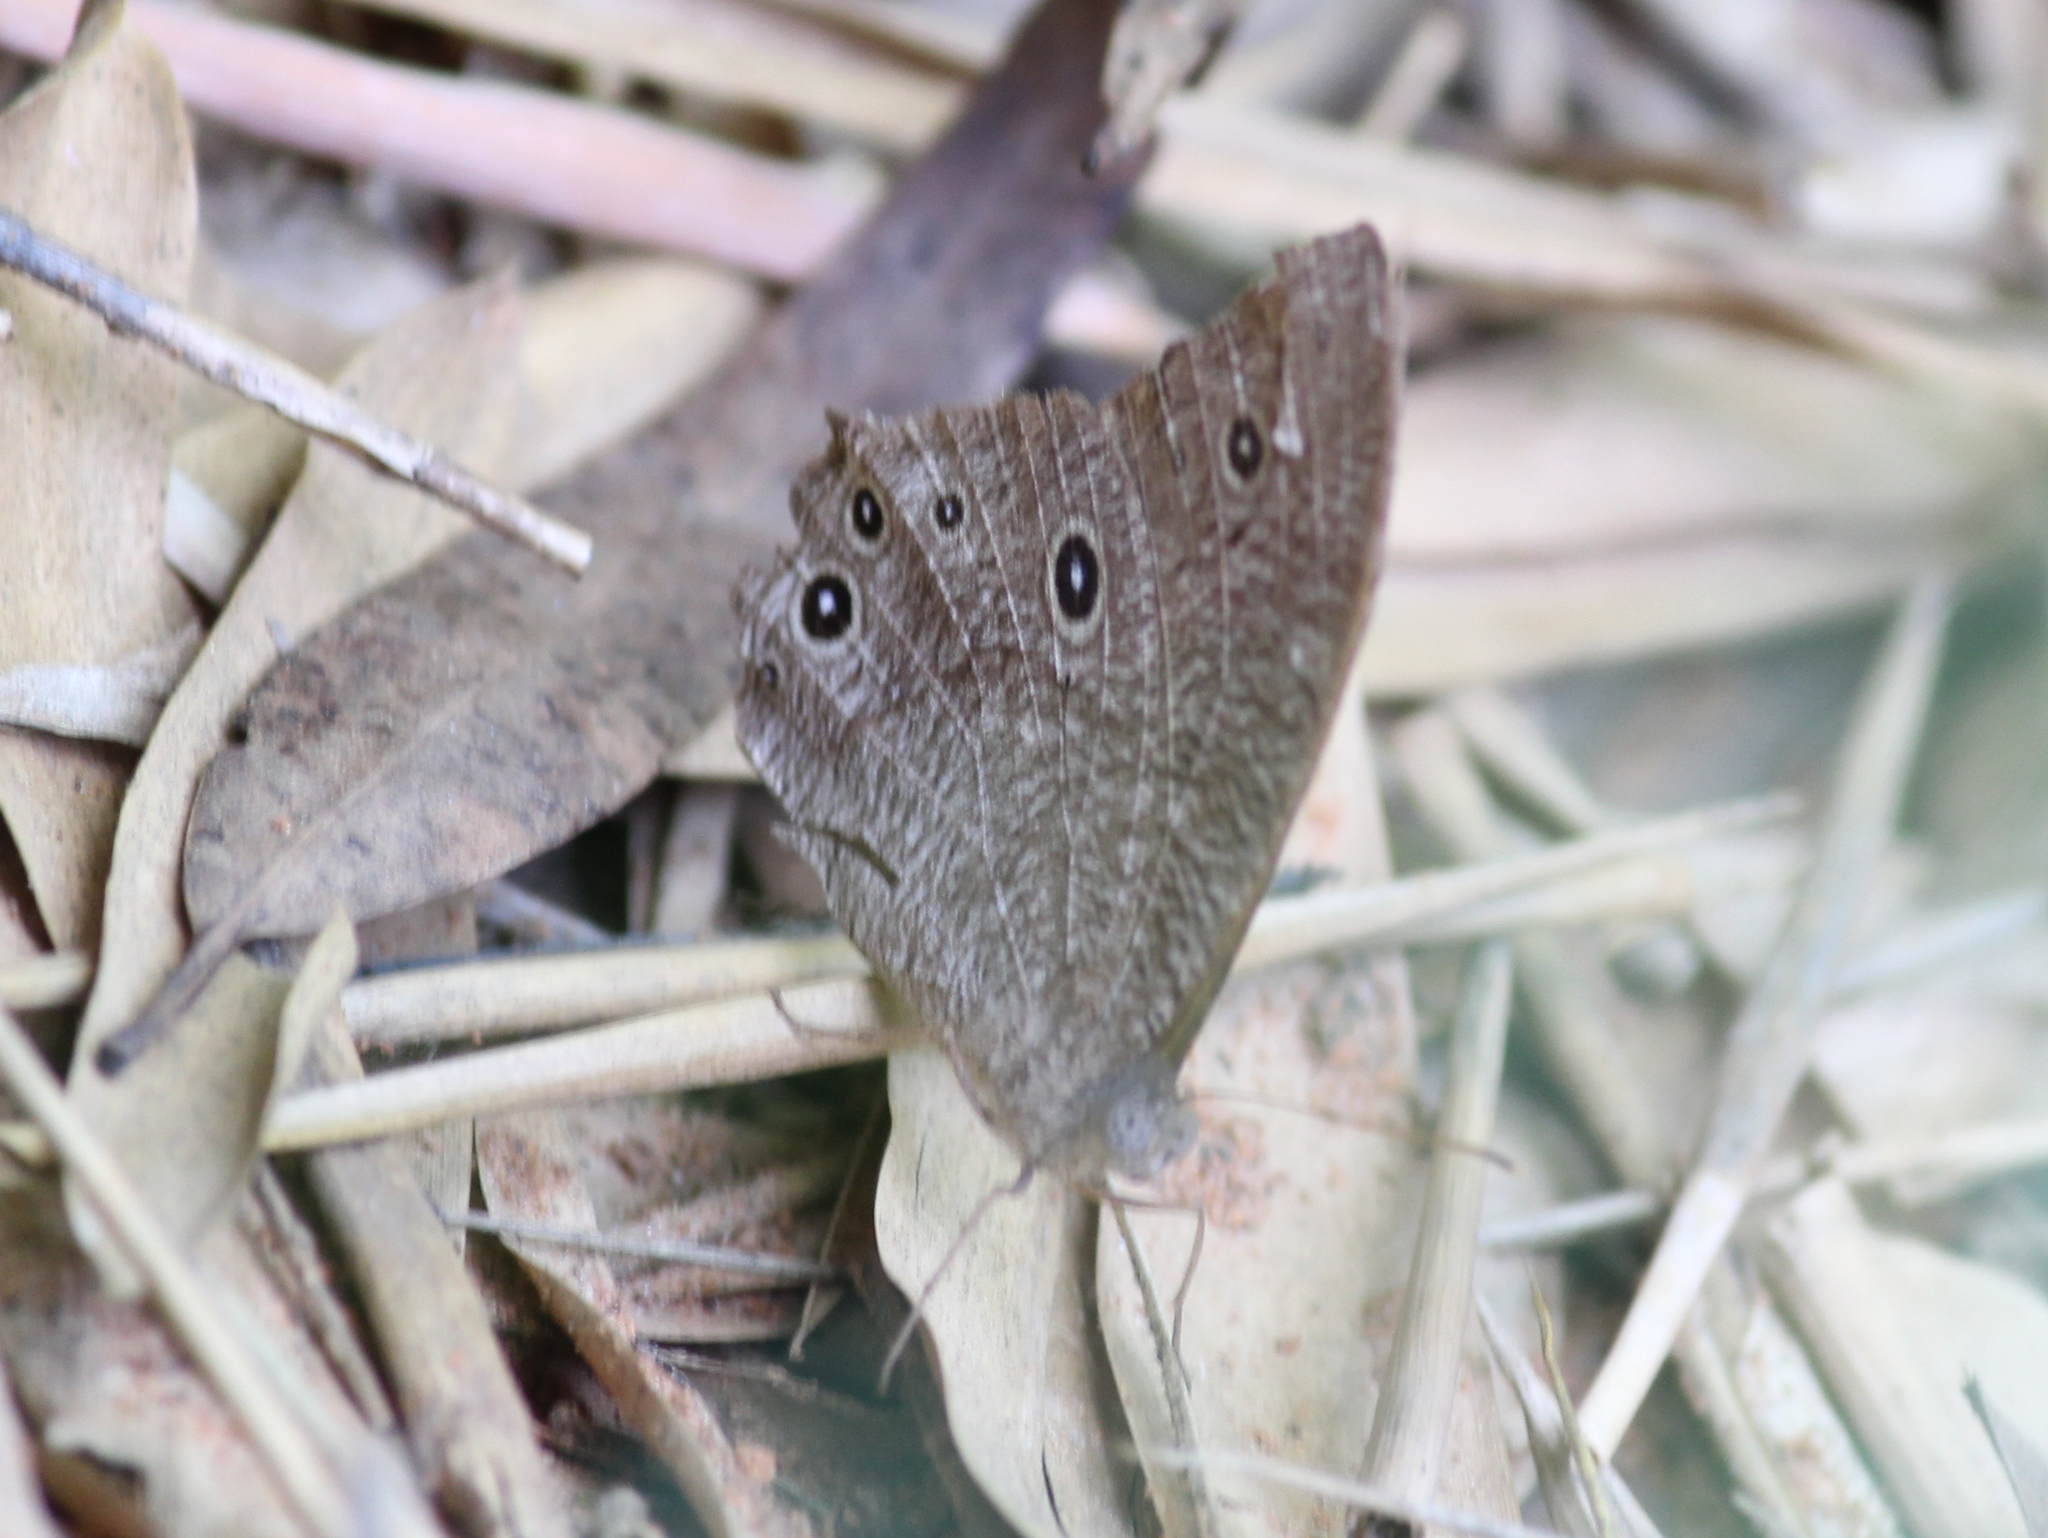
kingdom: Animalia
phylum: Arthropoda
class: Insecta
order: Lepidoptera
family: Nymphalidae
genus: Melanitis
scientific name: Melanitis leda
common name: Twilight brown
